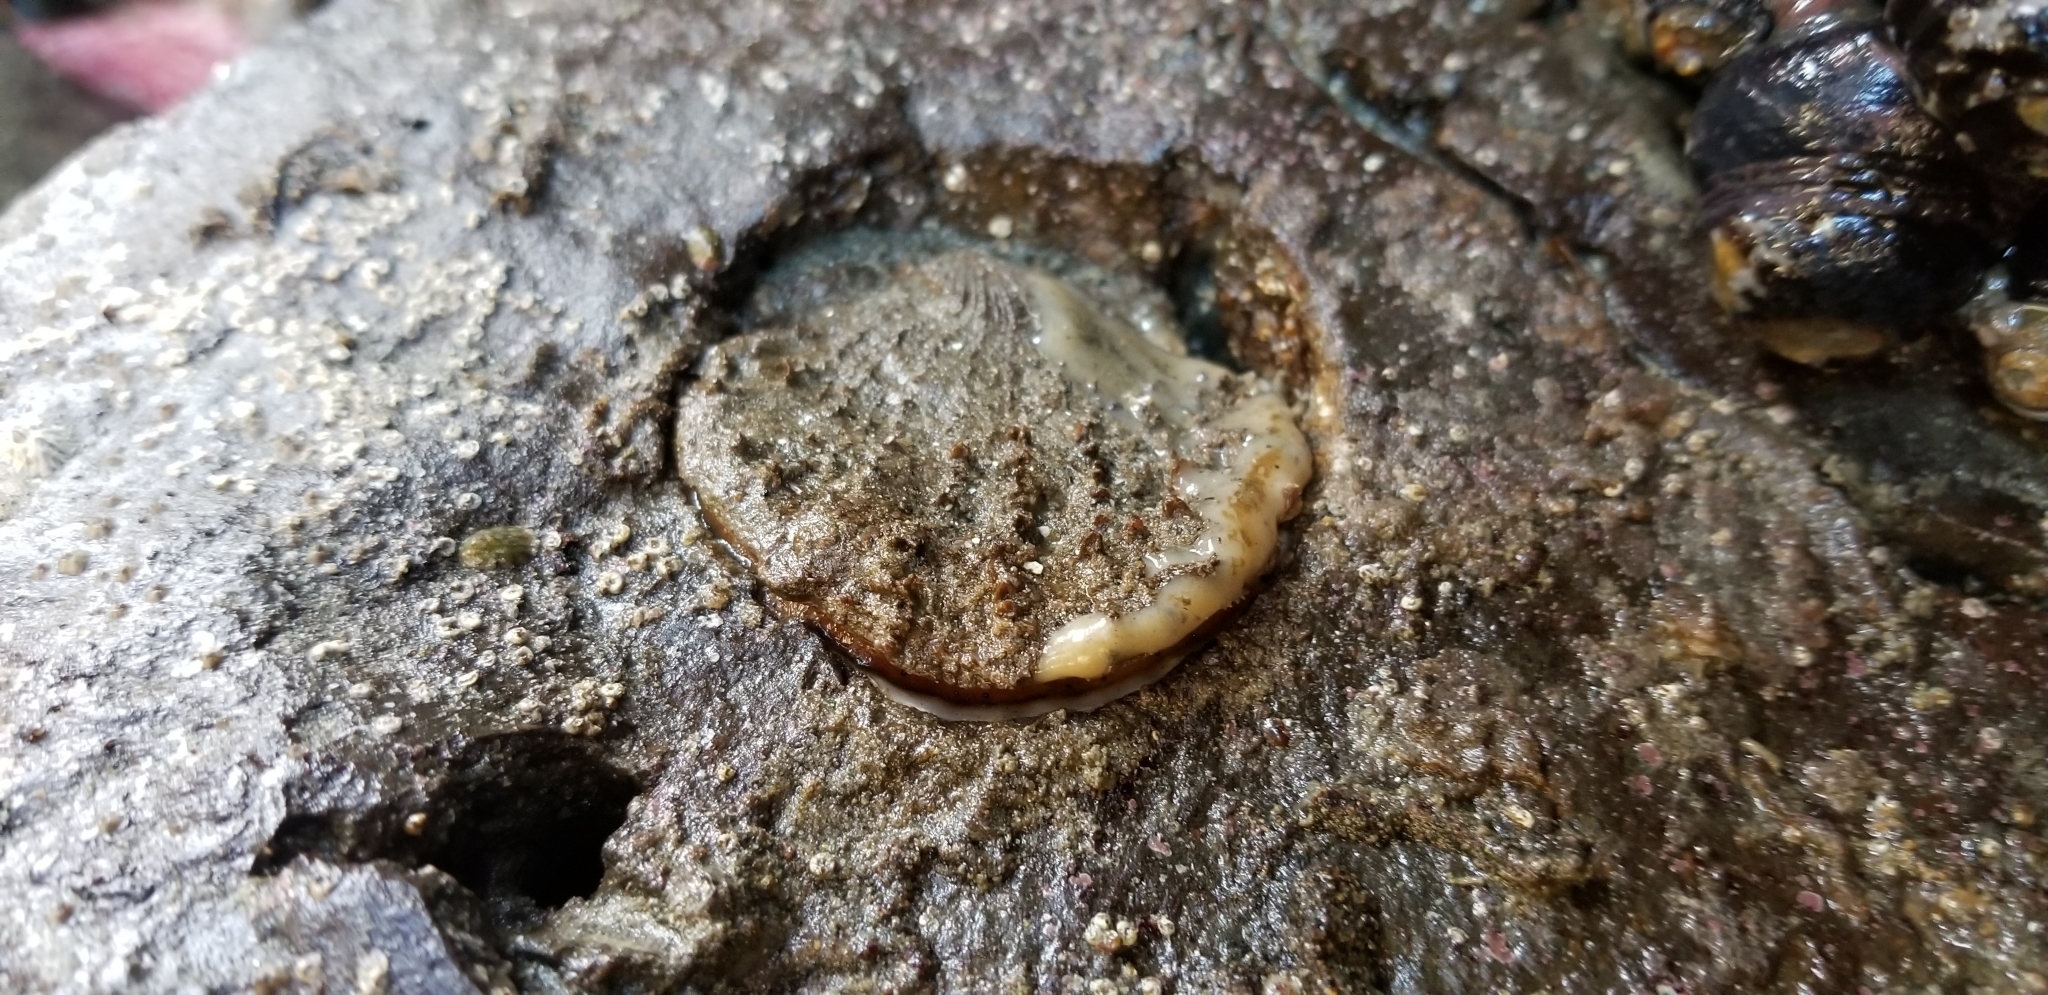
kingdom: Animalia
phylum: Mollusca
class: Bivalvia
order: Pectinida
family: Pectinidae
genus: Crassadoma
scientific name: Crassadoma gigantea
